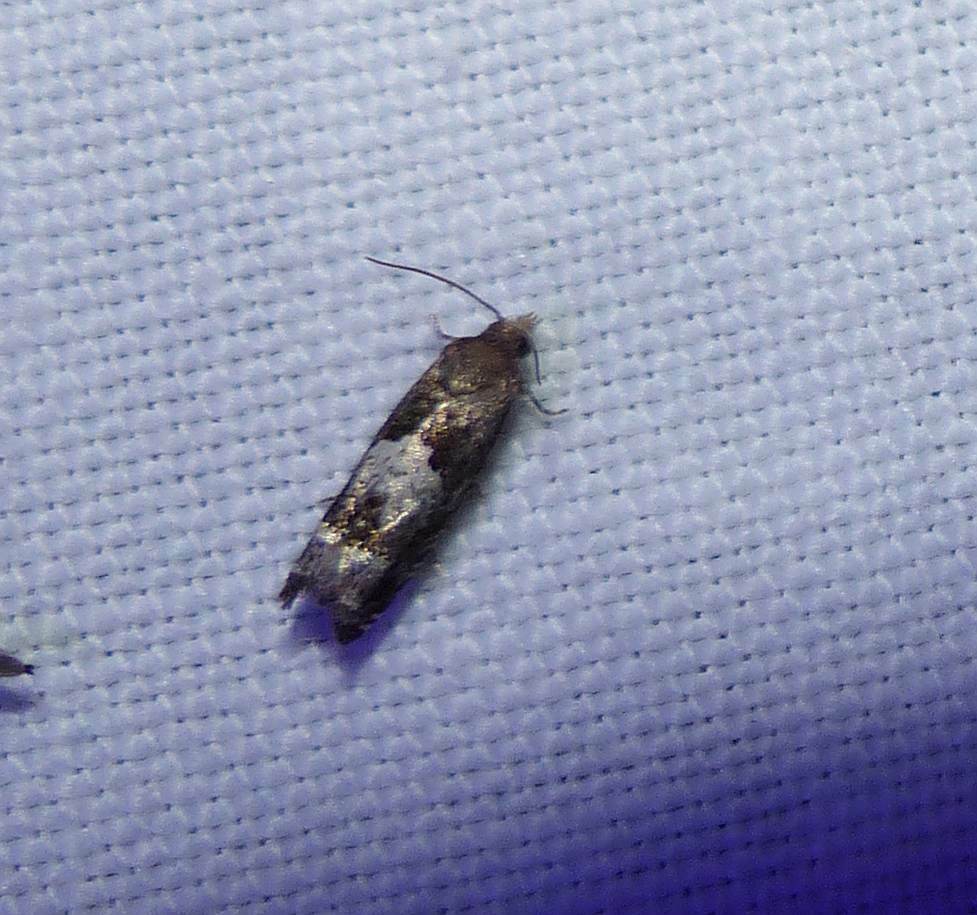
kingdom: Animalia
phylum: Arthropoda
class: Insecta
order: Lepidoptera
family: Tortricidae
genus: Eucosma
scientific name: Eucosma parmatana
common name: Aster eucosma moth
